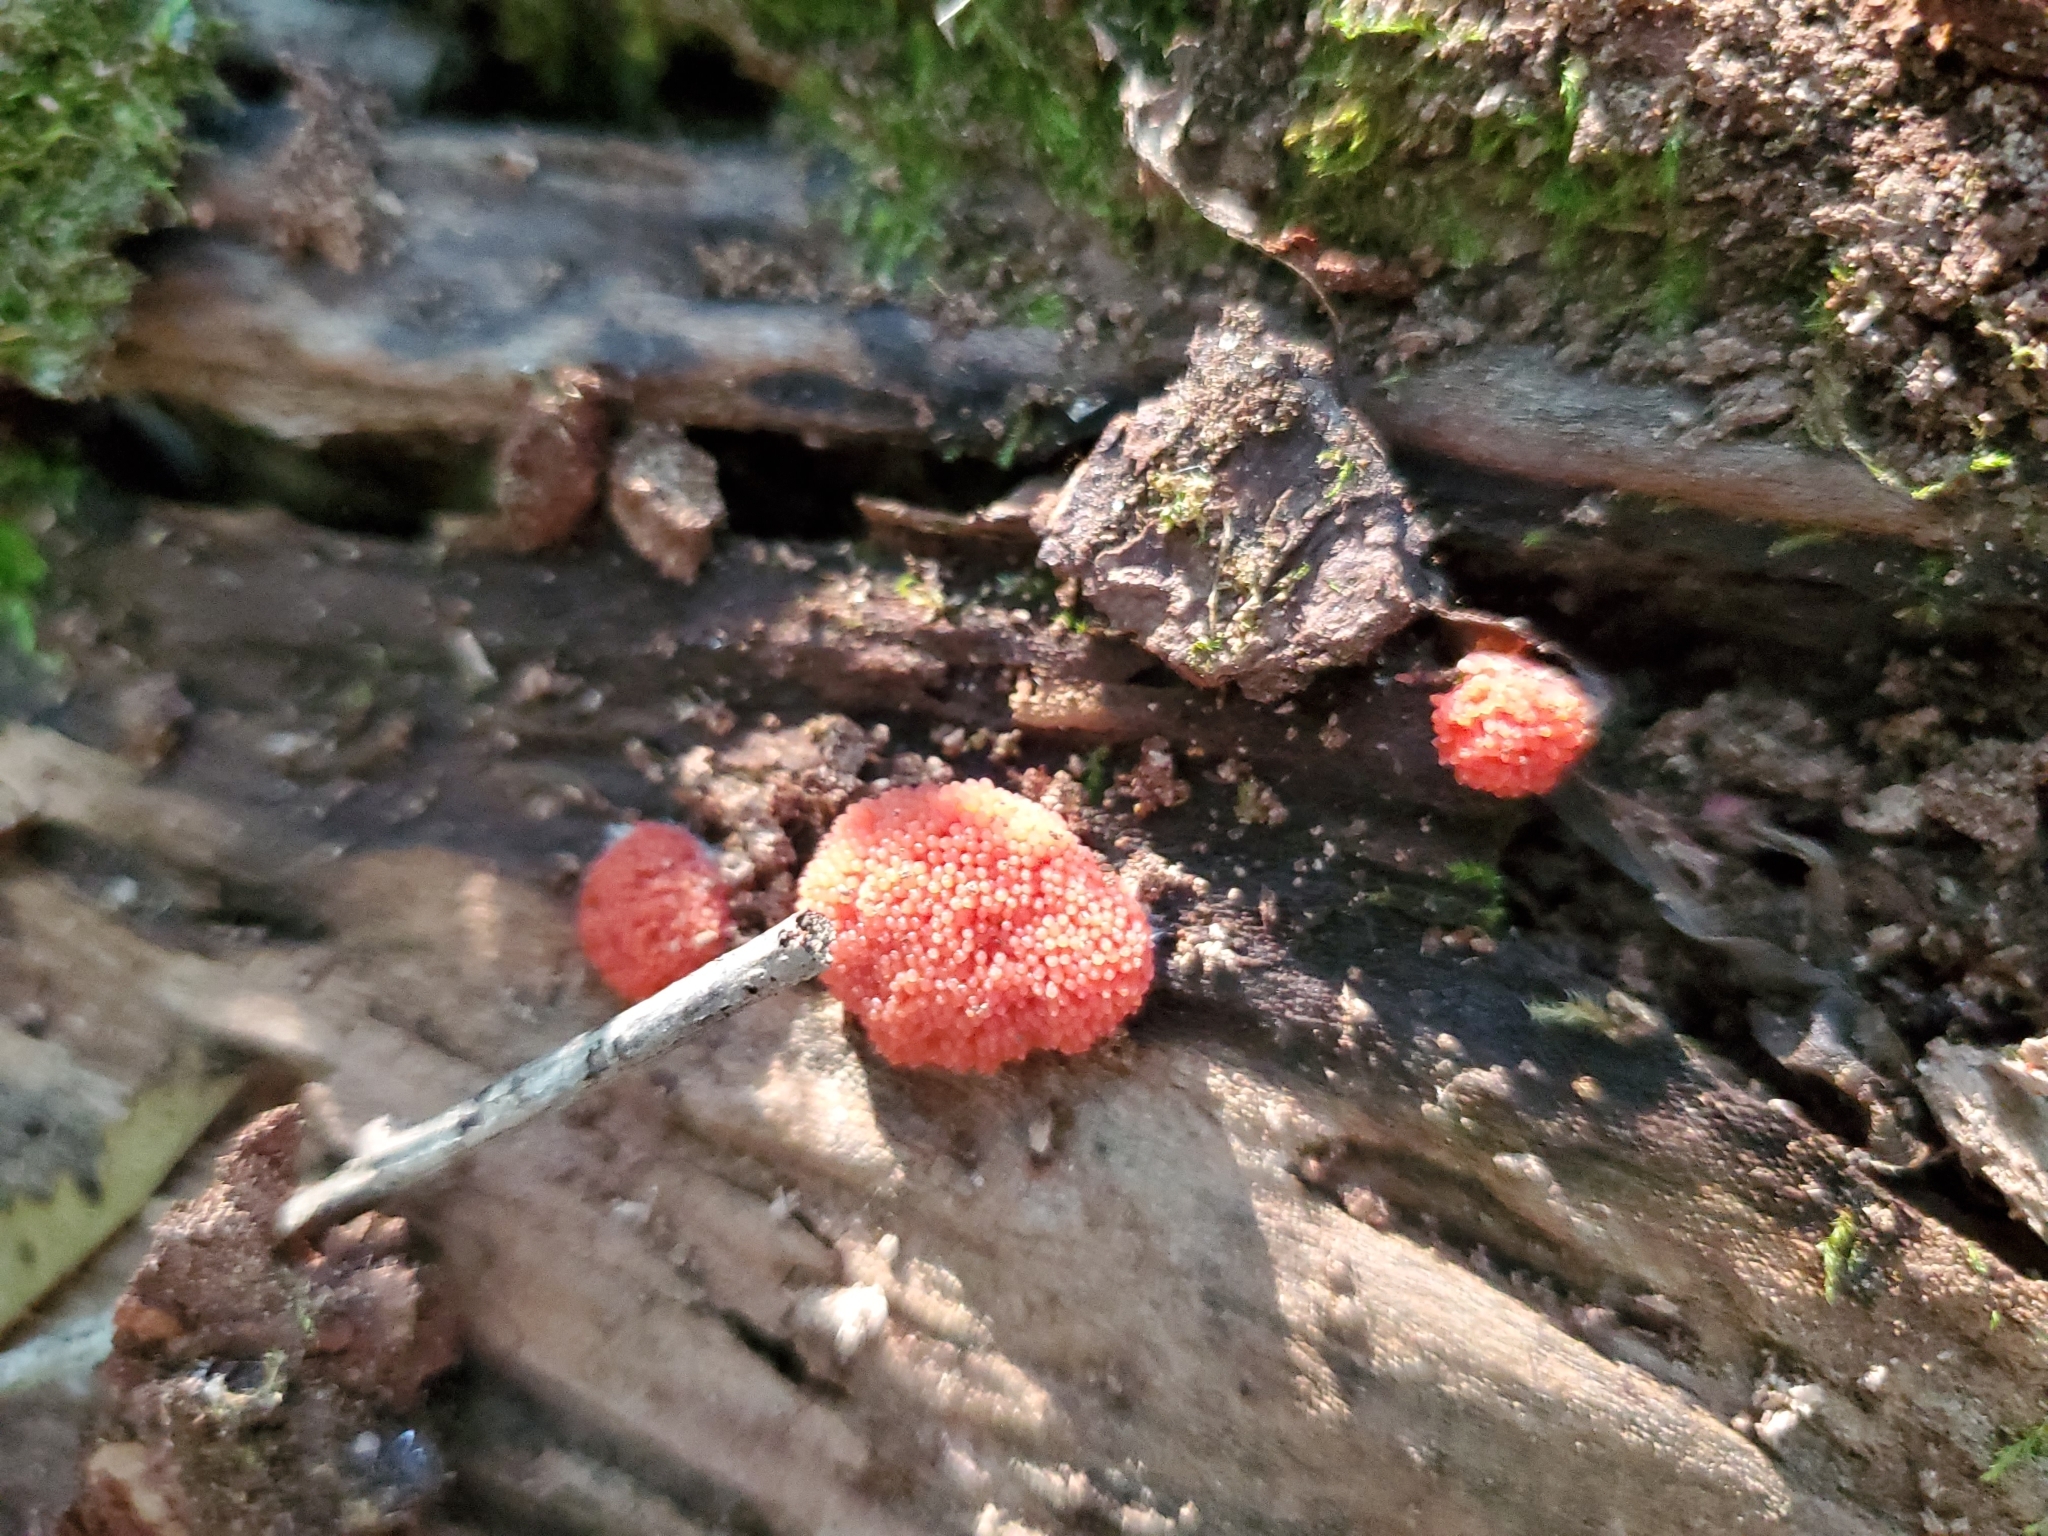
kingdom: Protozoa
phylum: Mycetozoa
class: Myxomycetes
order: Cribrariales
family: Tubiferaceae
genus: Tubifera
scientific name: Tubifera ferruginosa
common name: Red raspberry slime mold
